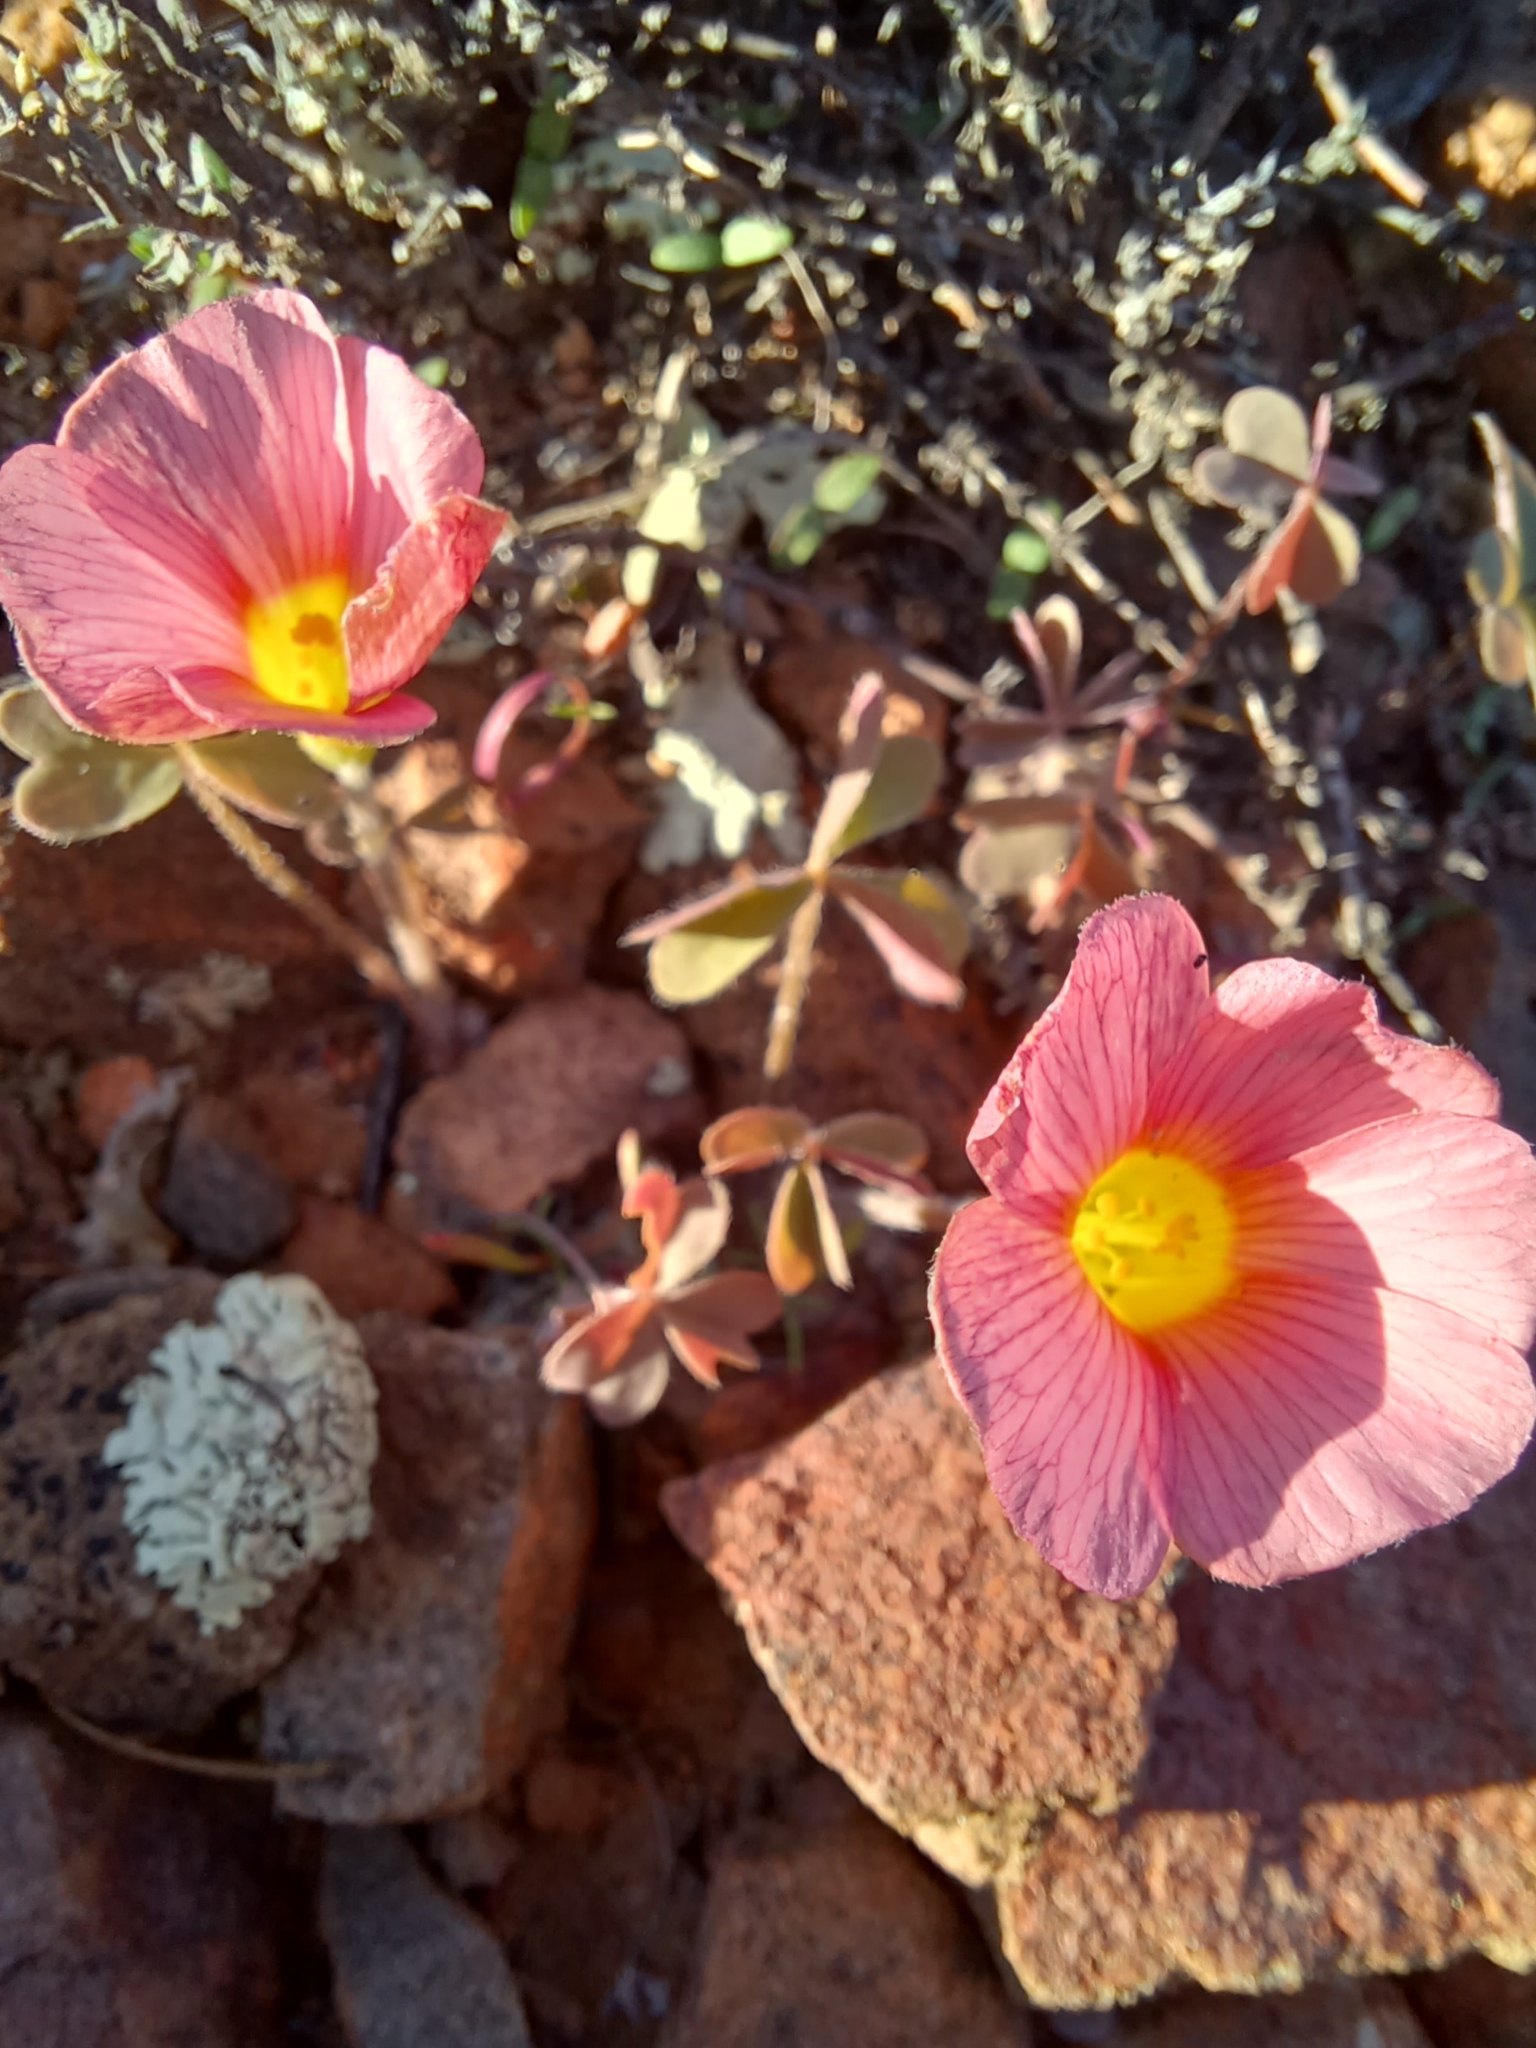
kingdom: Plantae
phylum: Tracheophyta
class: Magnoliopsida
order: Oxalidales
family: Oxalidaceae
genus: Oxalis
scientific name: Oxalis obtusa
